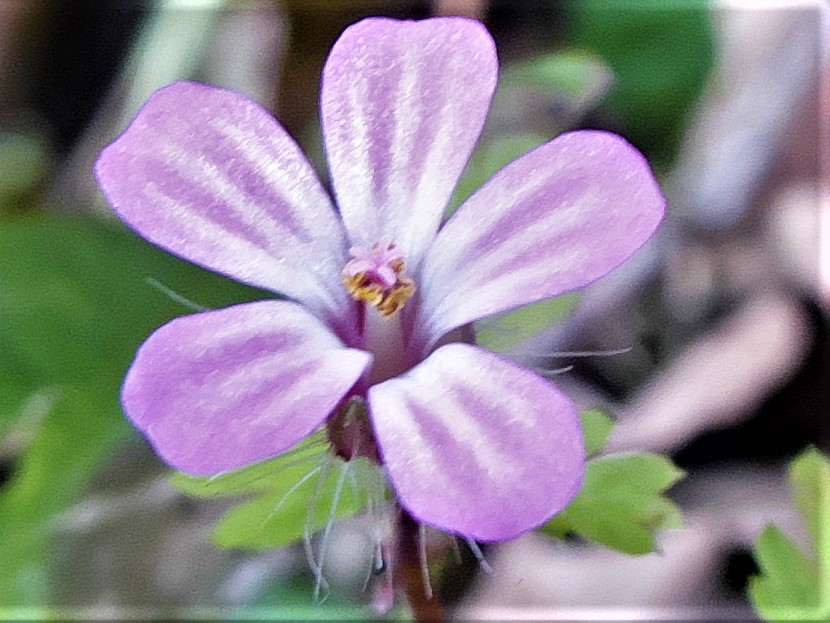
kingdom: Plantae
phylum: Tracheophyta
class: Magnoliopsida
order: Geraniales
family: Geraniaceae
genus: Geranium
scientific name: Geranium robertianum
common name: Herb-robert
